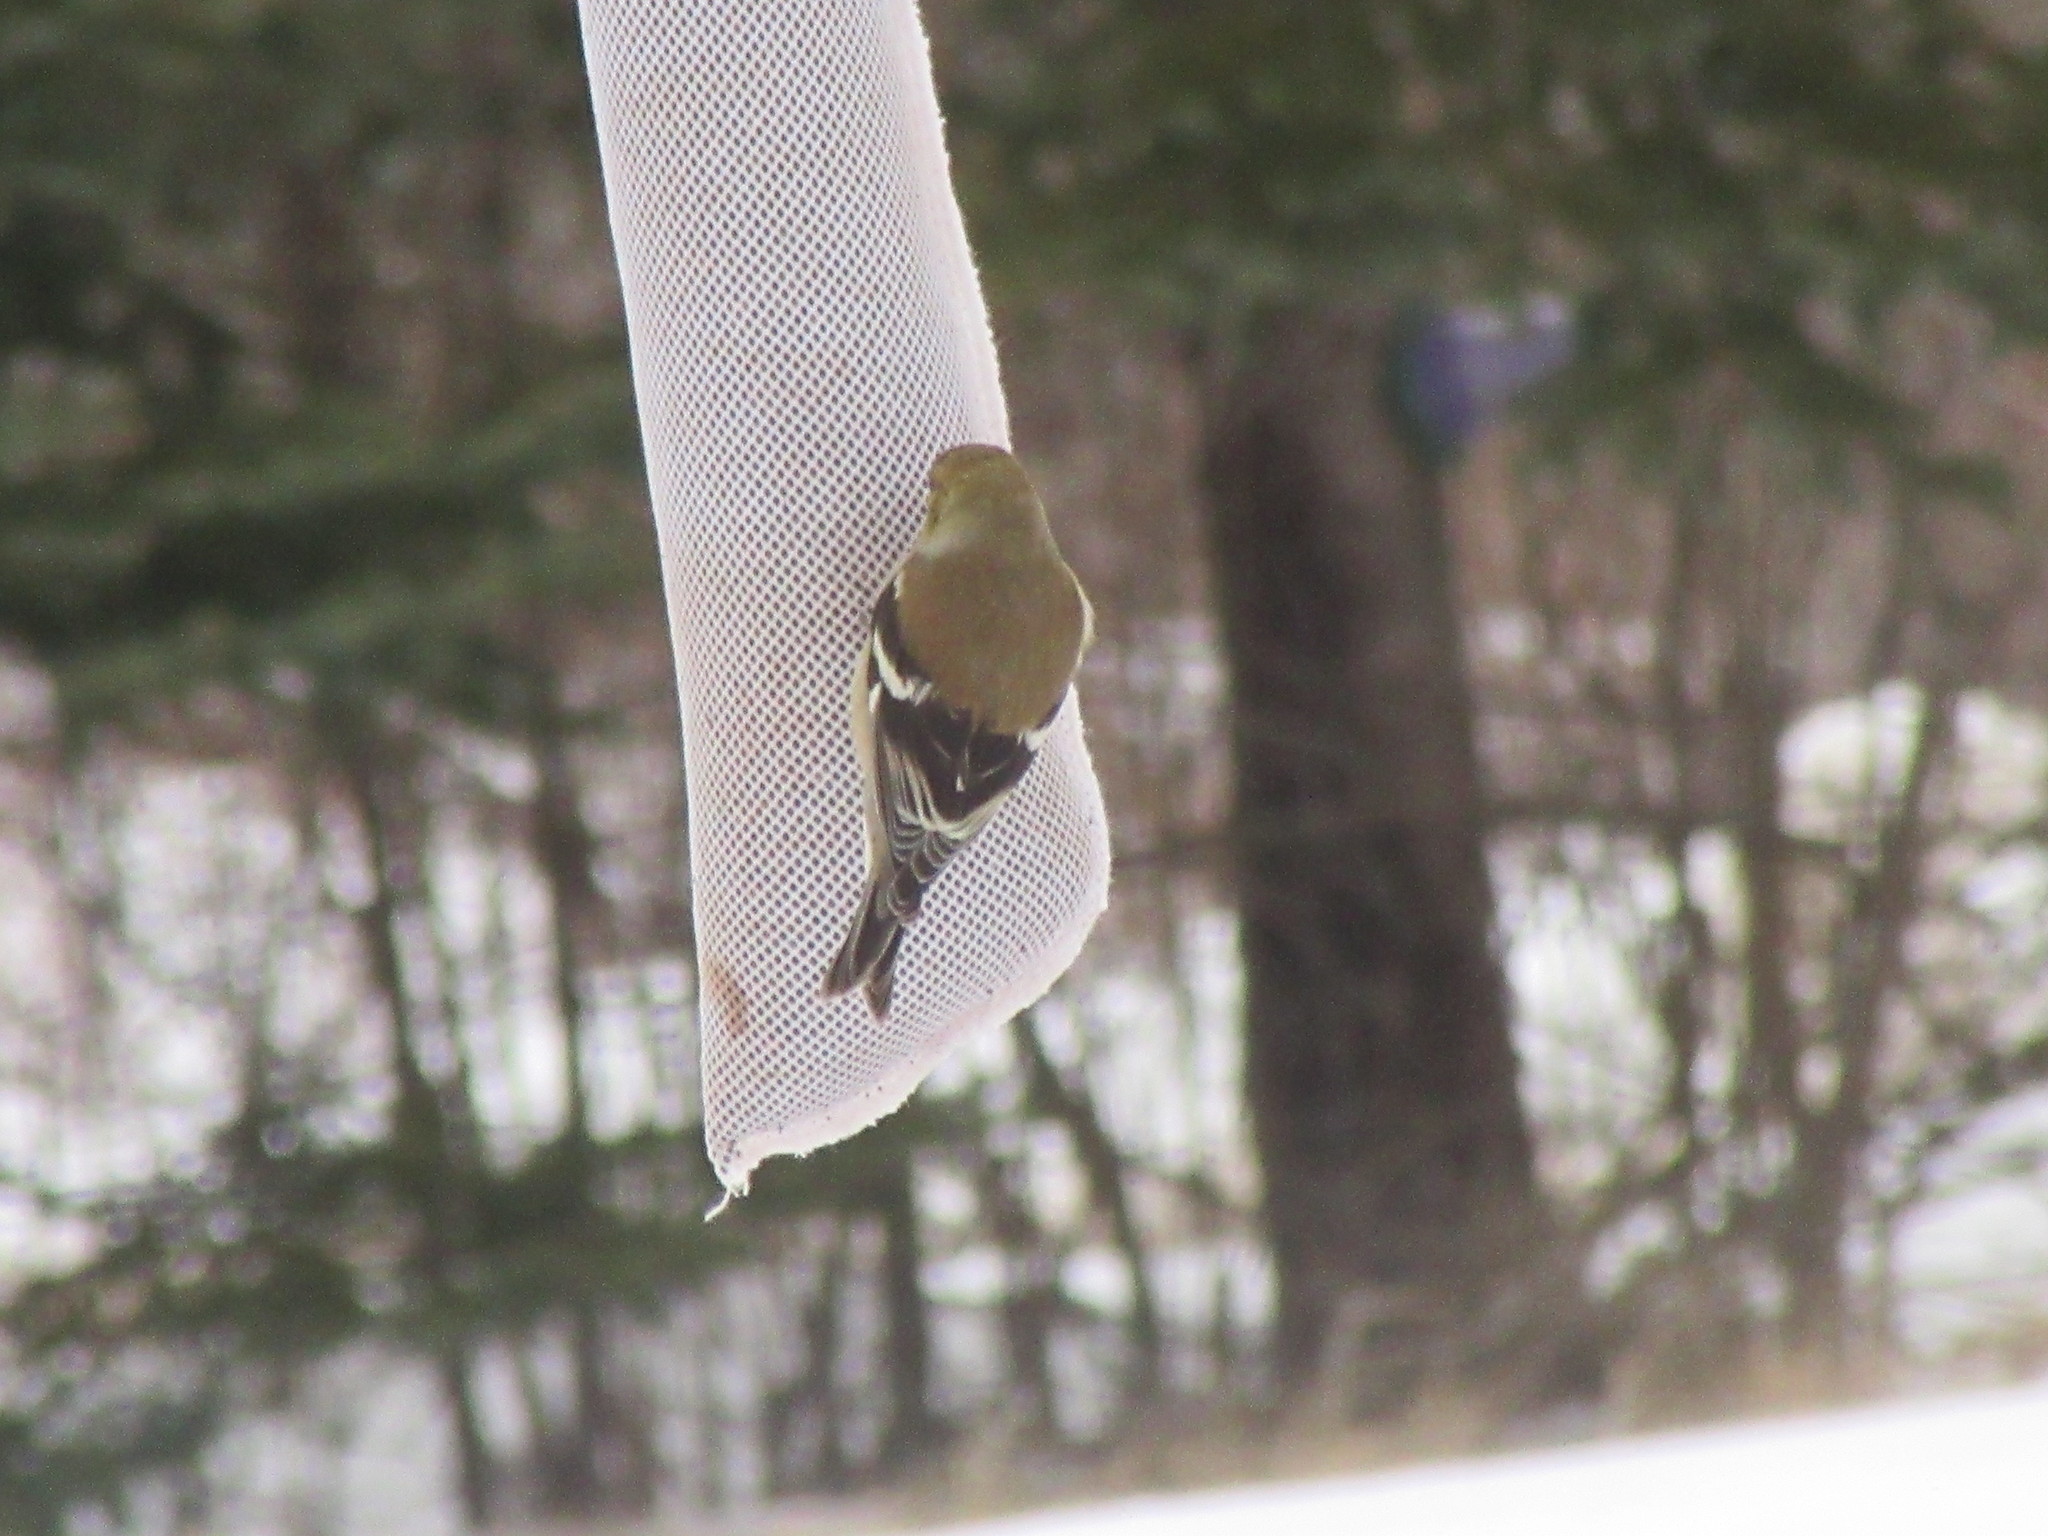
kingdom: Animalia
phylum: Chordata
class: Aves
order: Passeriformes
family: Fringillidae
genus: Spinus
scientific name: Spinus tristis
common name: American goldfinch
